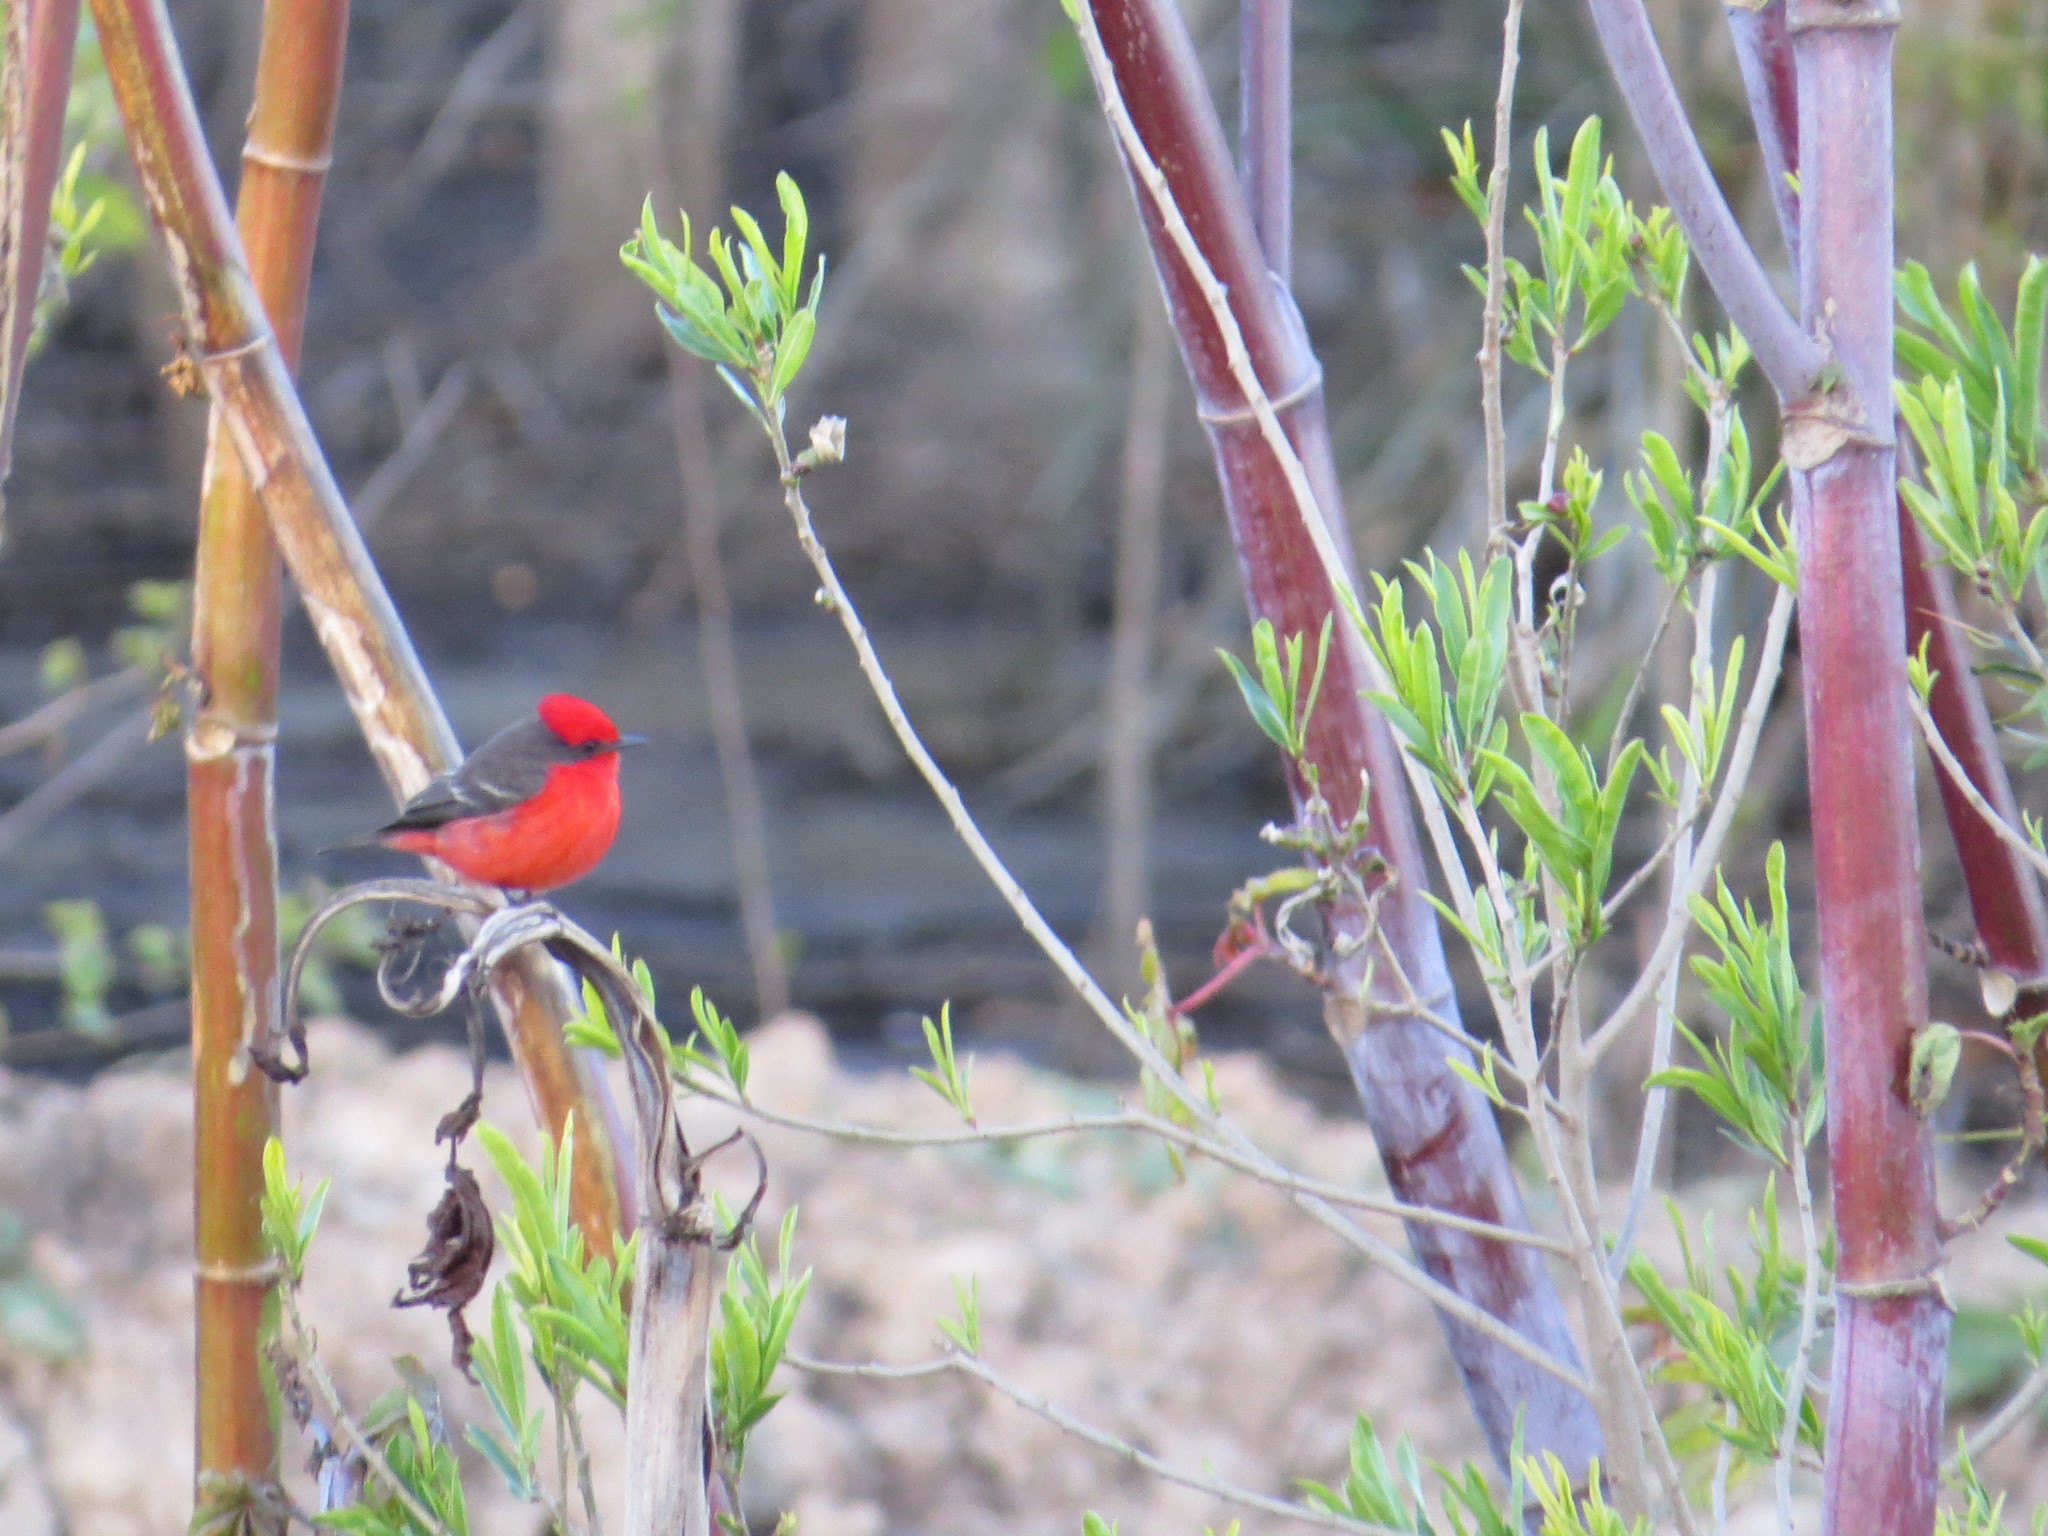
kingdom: Animalia
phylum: Chordata
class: Aves
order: Passeriformes
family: Tyrannidae
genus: Pyrocephalus
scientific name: Pyrocephalus rubinus
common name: Vermilion flycatcher
